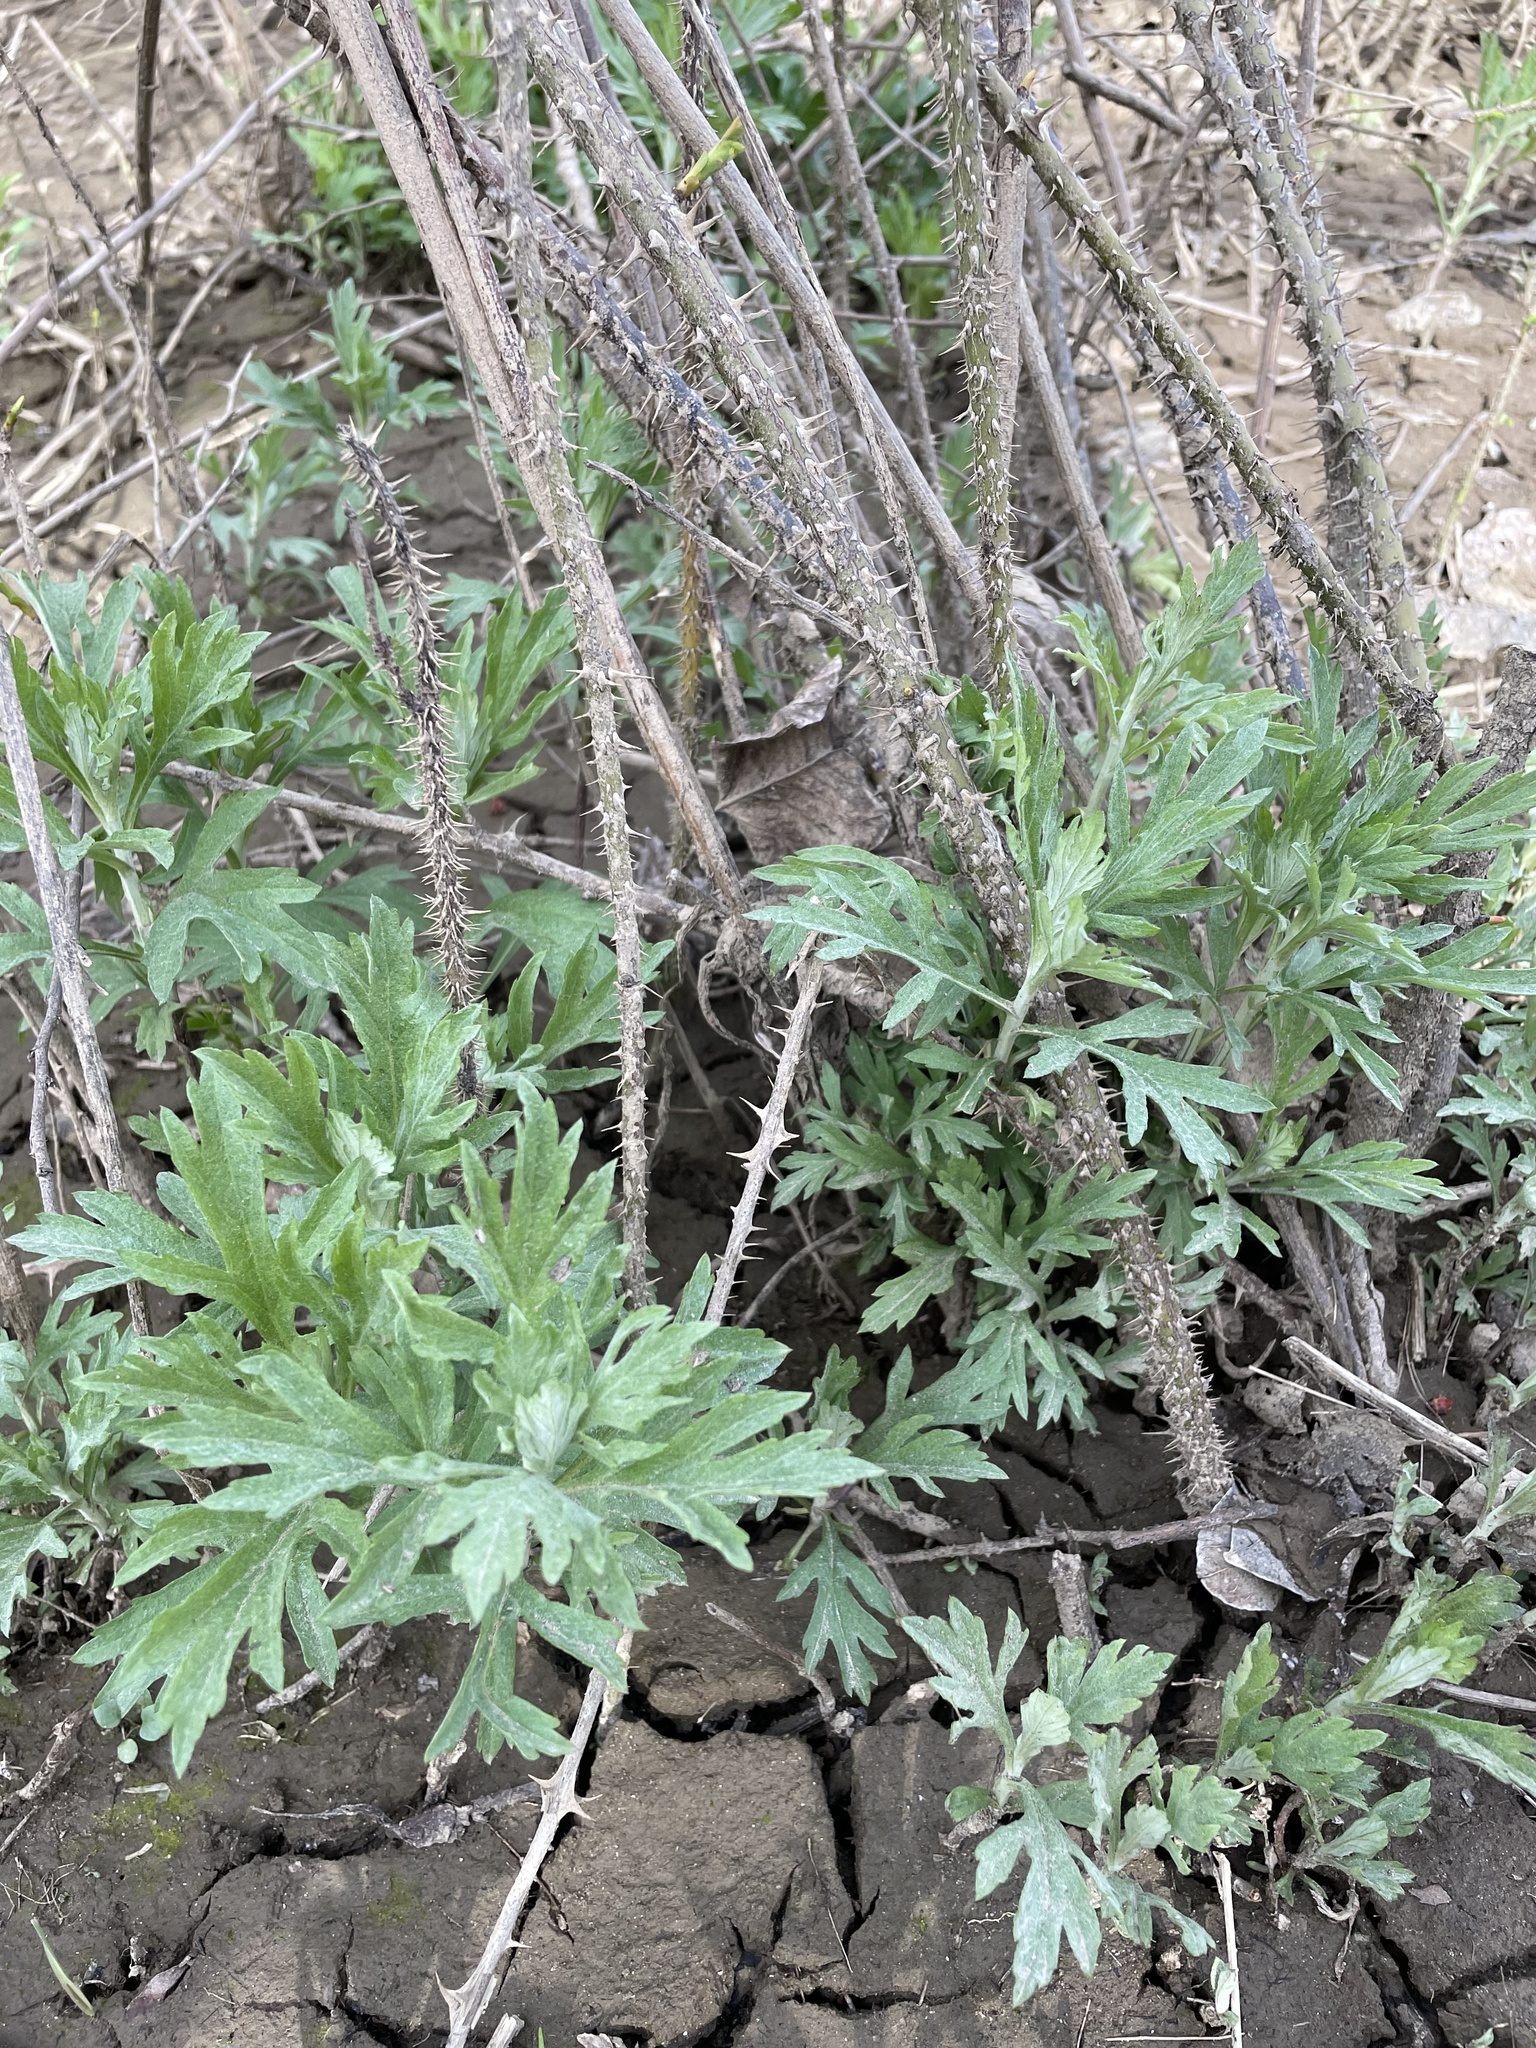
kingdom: Plantae
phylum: Tracheophyta
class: Magnoliopsida
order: Asterales
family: Asteraceae
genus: Artemisia
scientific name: Artemisia douglasiana
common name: Northwest mugwort
